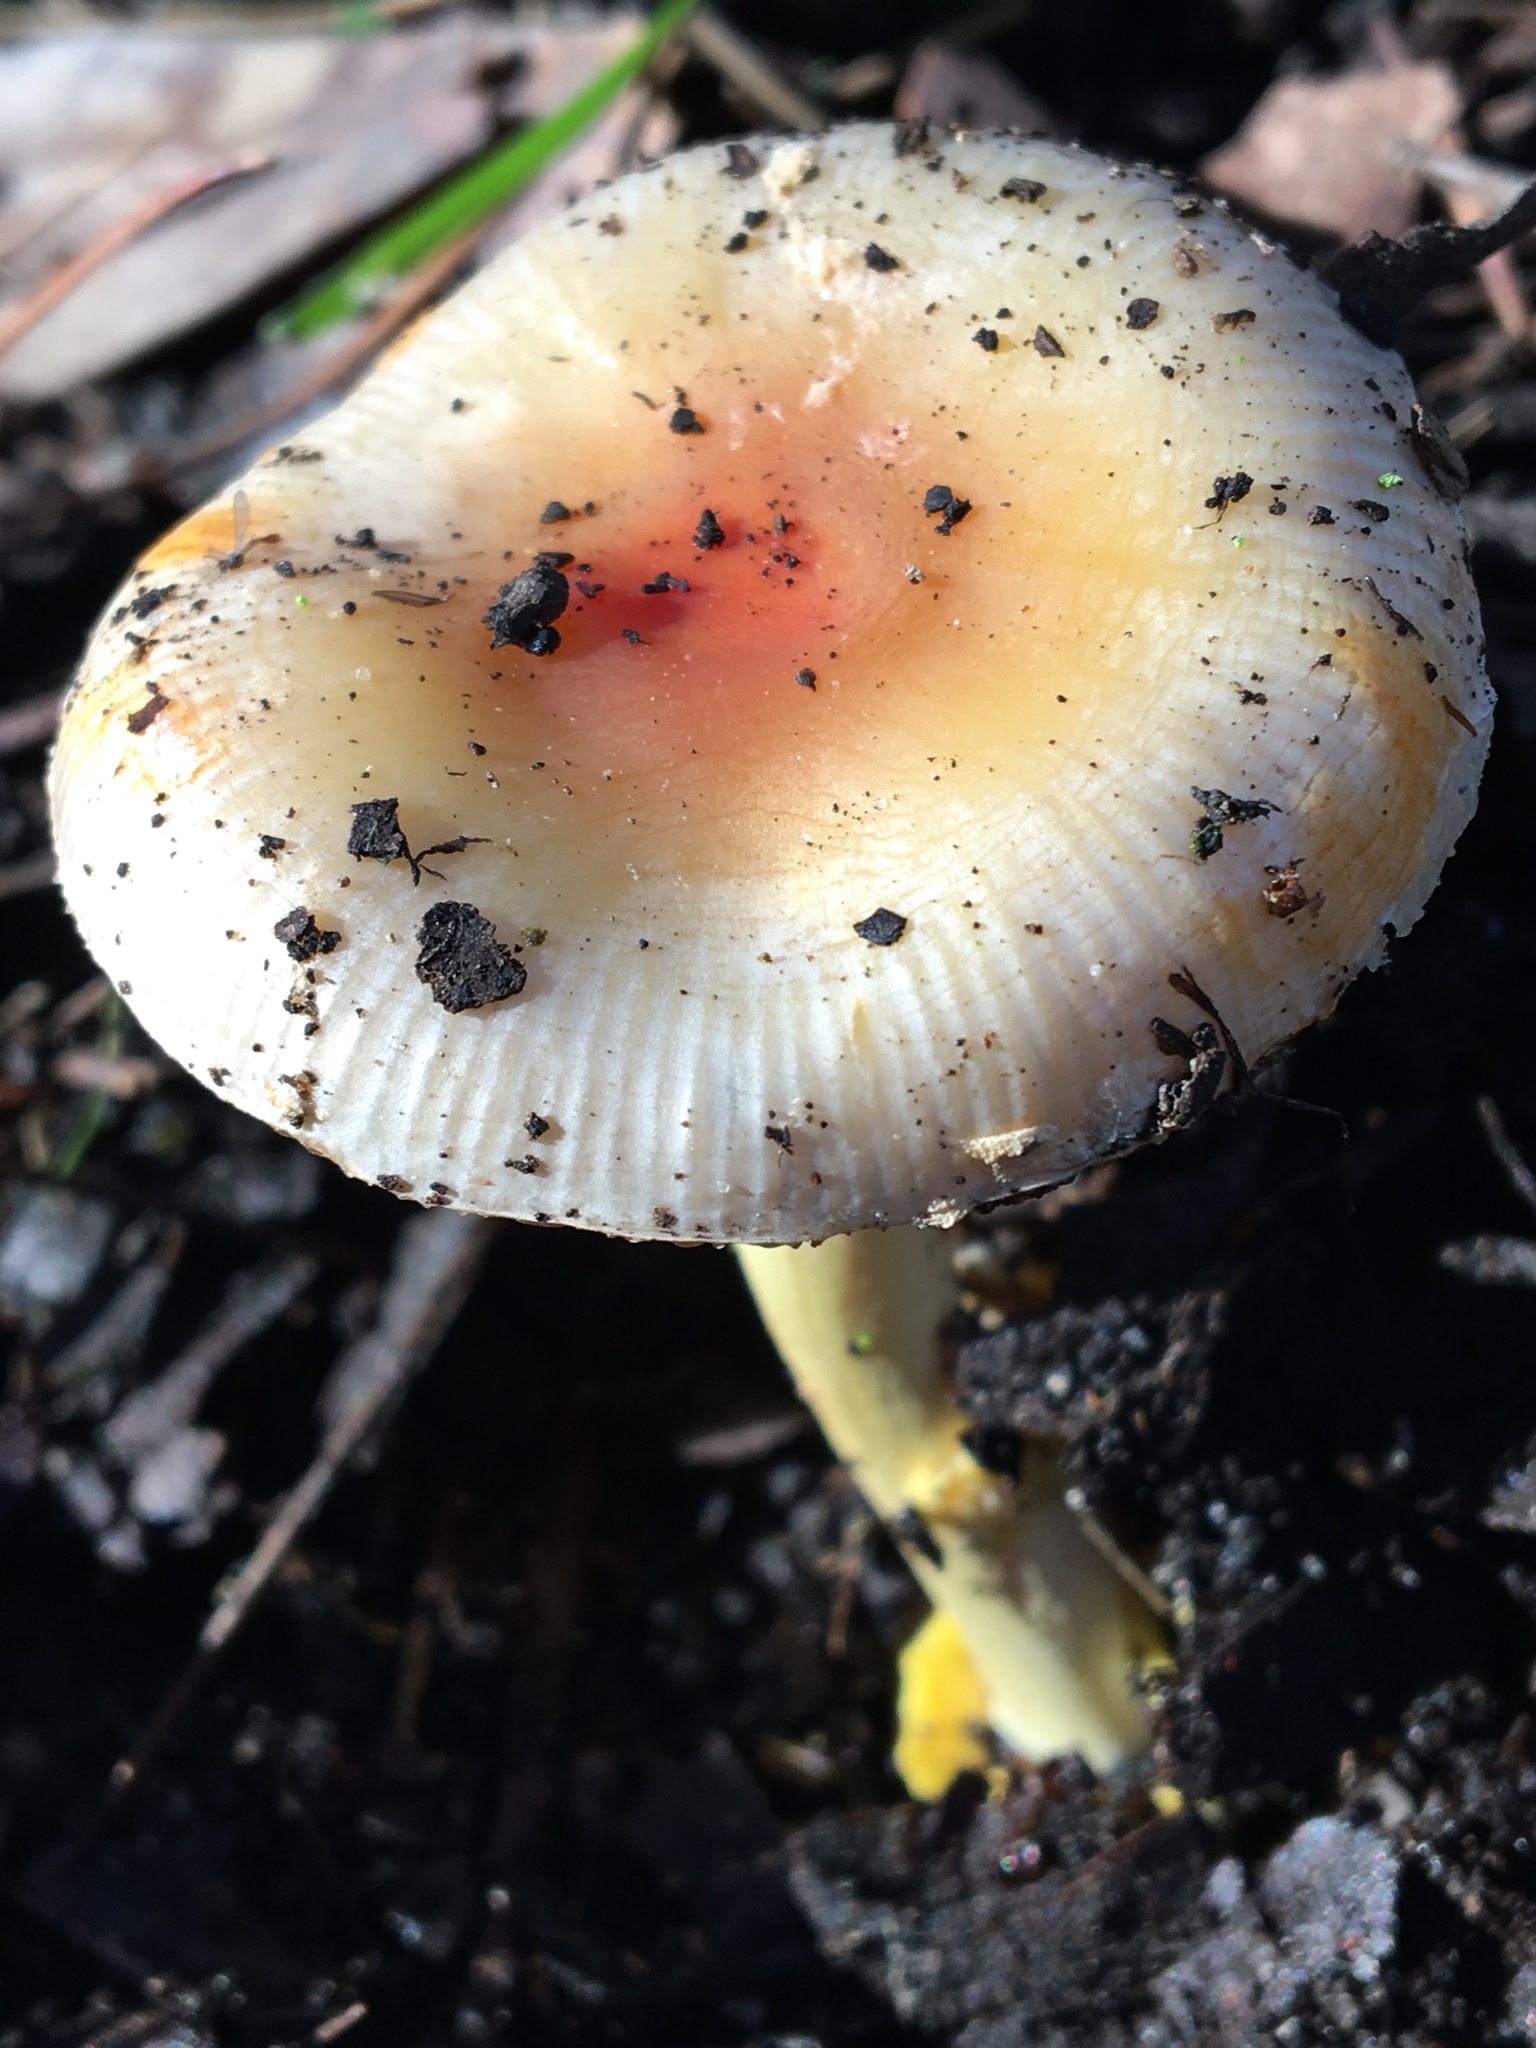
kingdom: Fungi
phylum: Basidiomycota
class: Agaricomycetes
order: Agaricales
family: Amanitaceae
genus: Amanita
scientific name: Amanita xanthocephala
